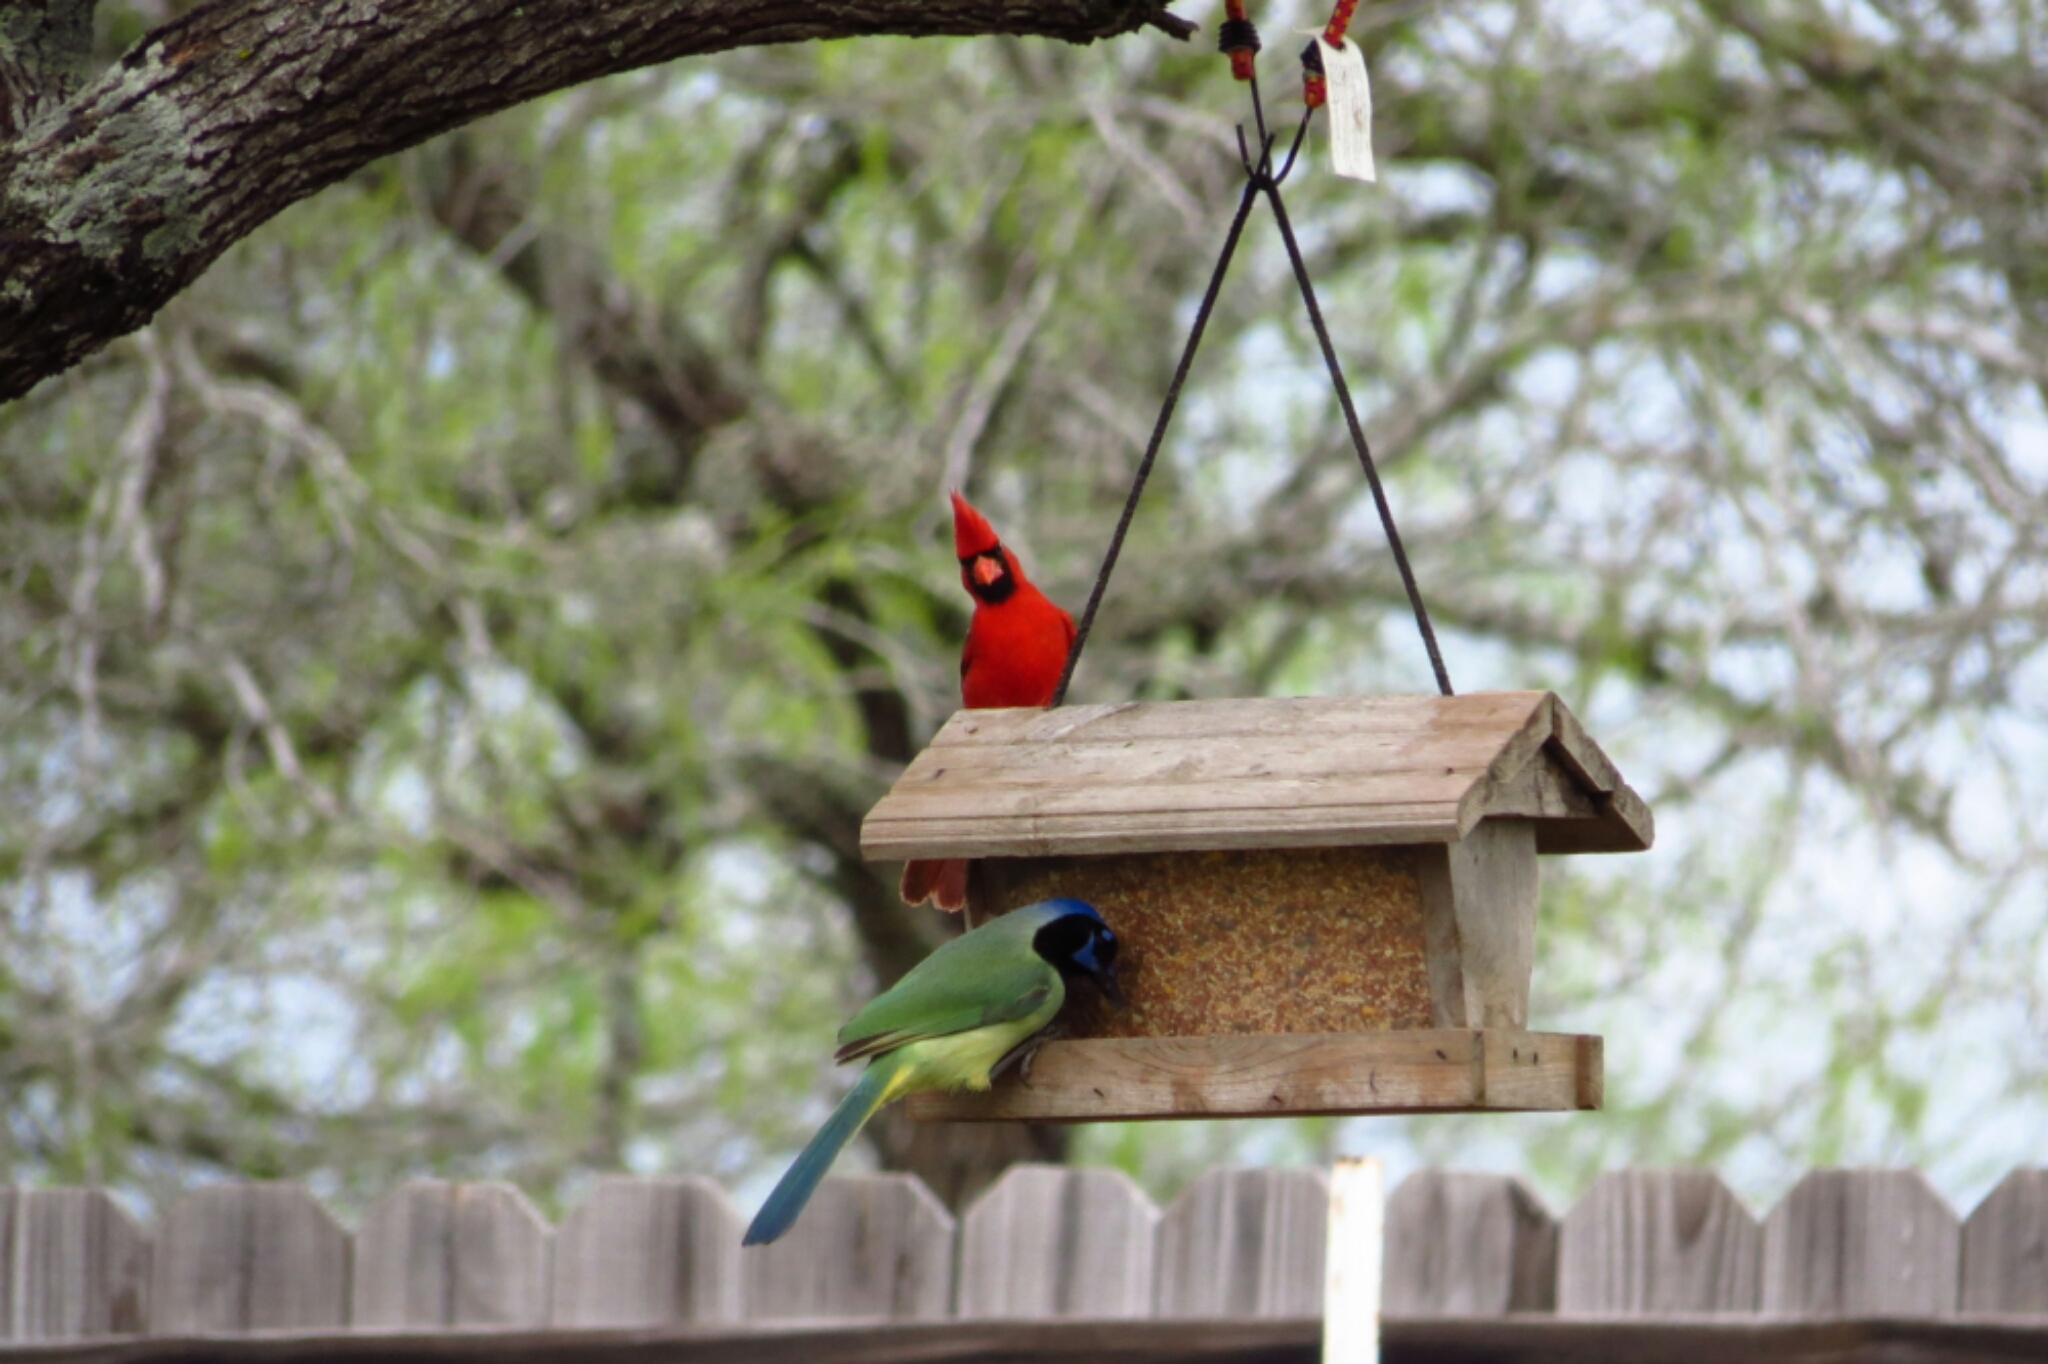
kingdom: Animalia
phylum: Chordata
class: Aves
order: Passeriformes
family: Corvidae
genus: Cyanocorax
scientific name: Cyanocorax yncas
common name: Green jay
